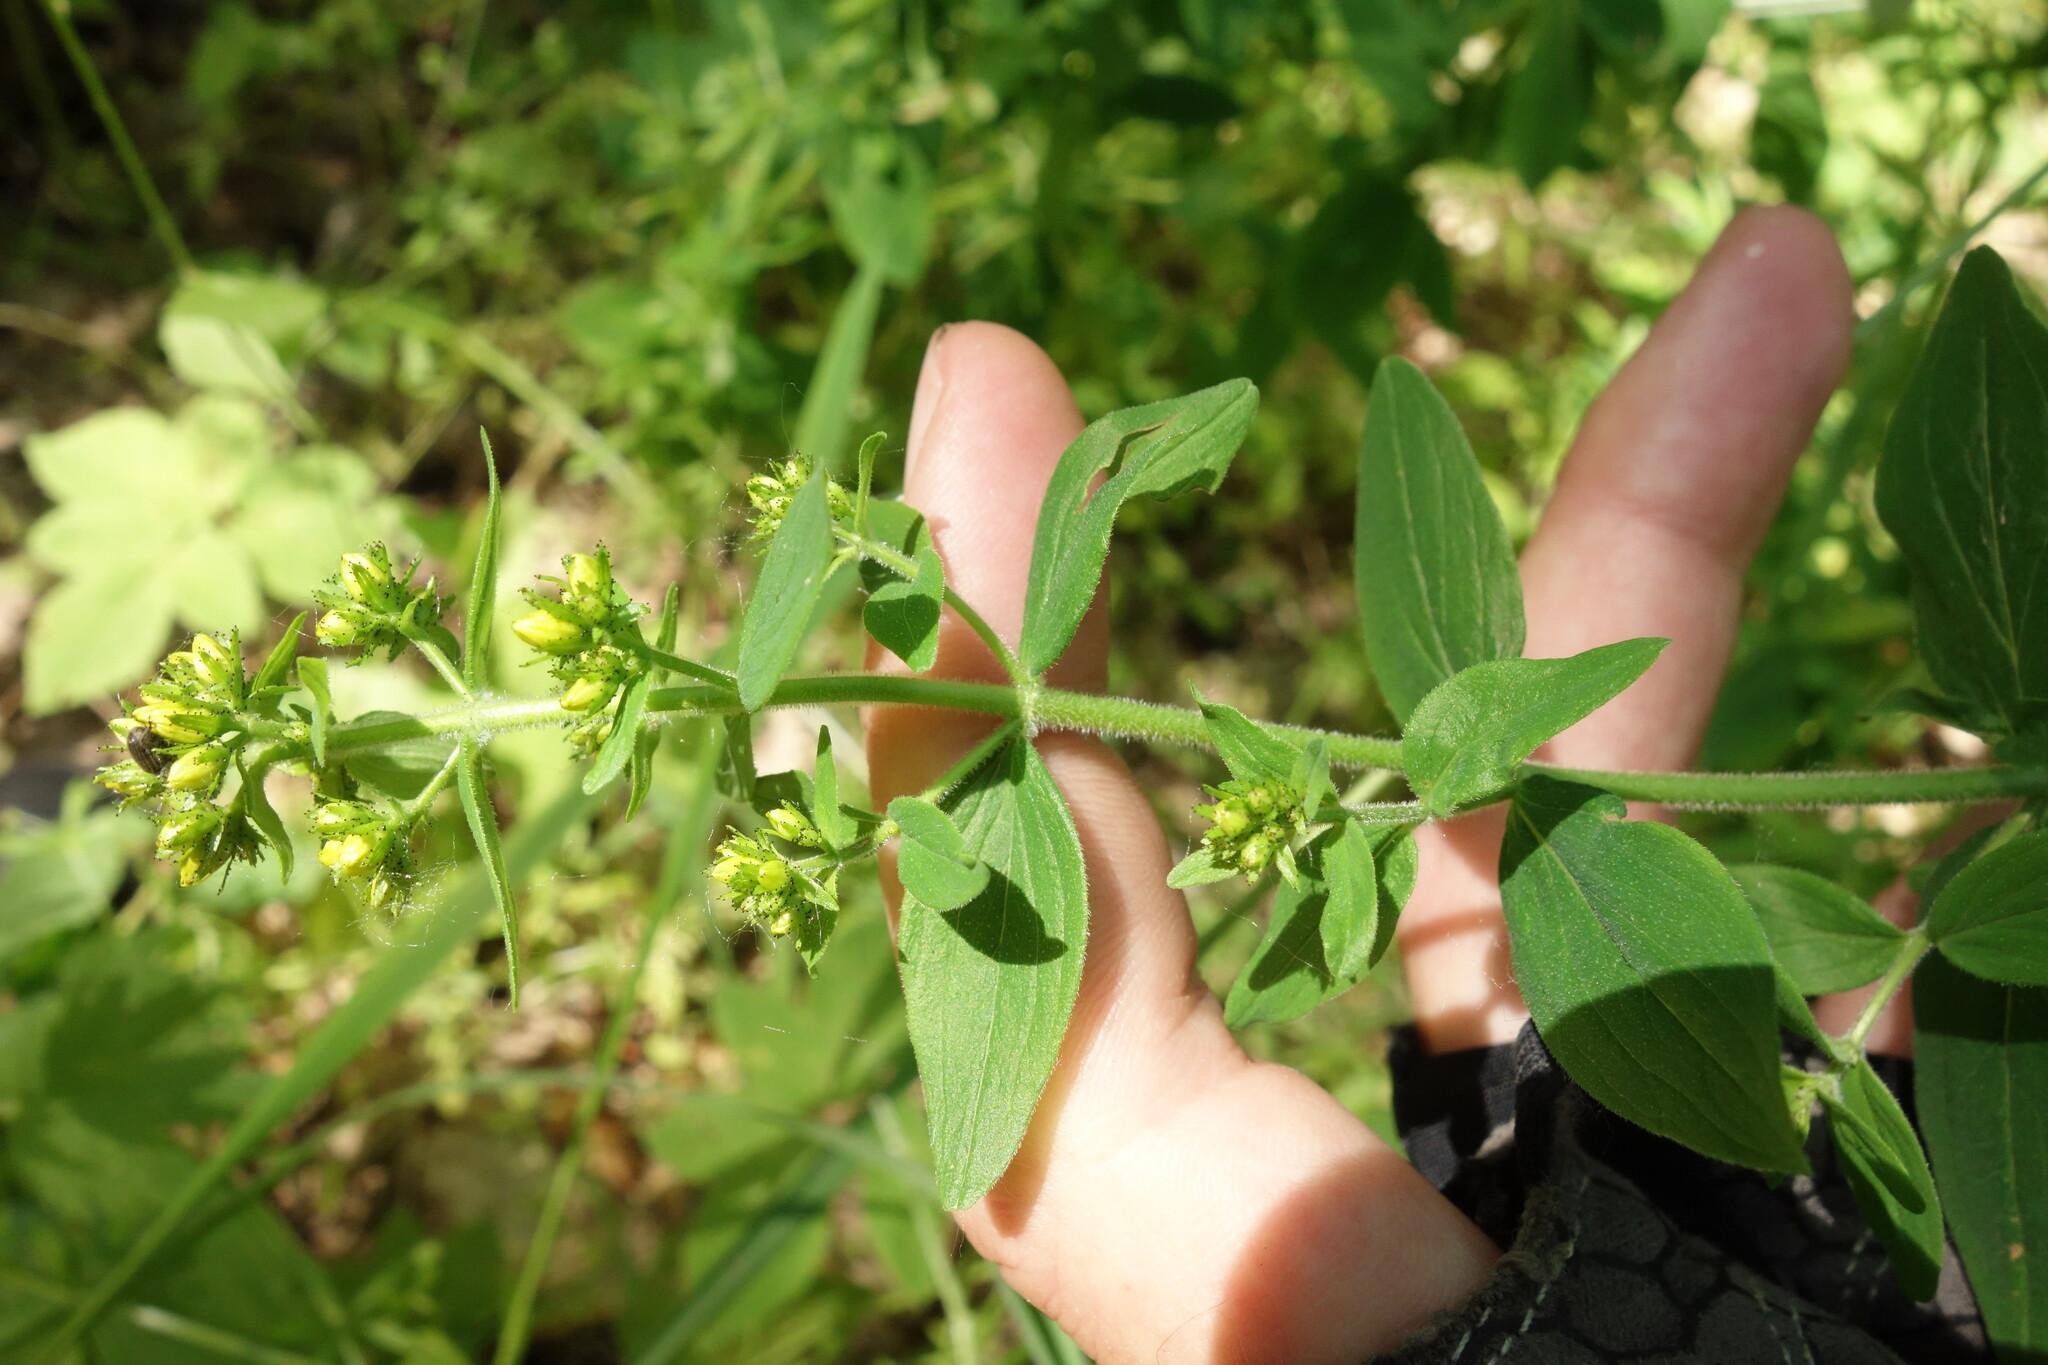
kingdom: Plantae
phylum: Tracheophyta
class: Magnoliopsida
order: Malpighiales
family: Hypericaceae
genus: Hypericum
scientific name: Hypericum hirsutum
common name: Hairy st. john's-wort
